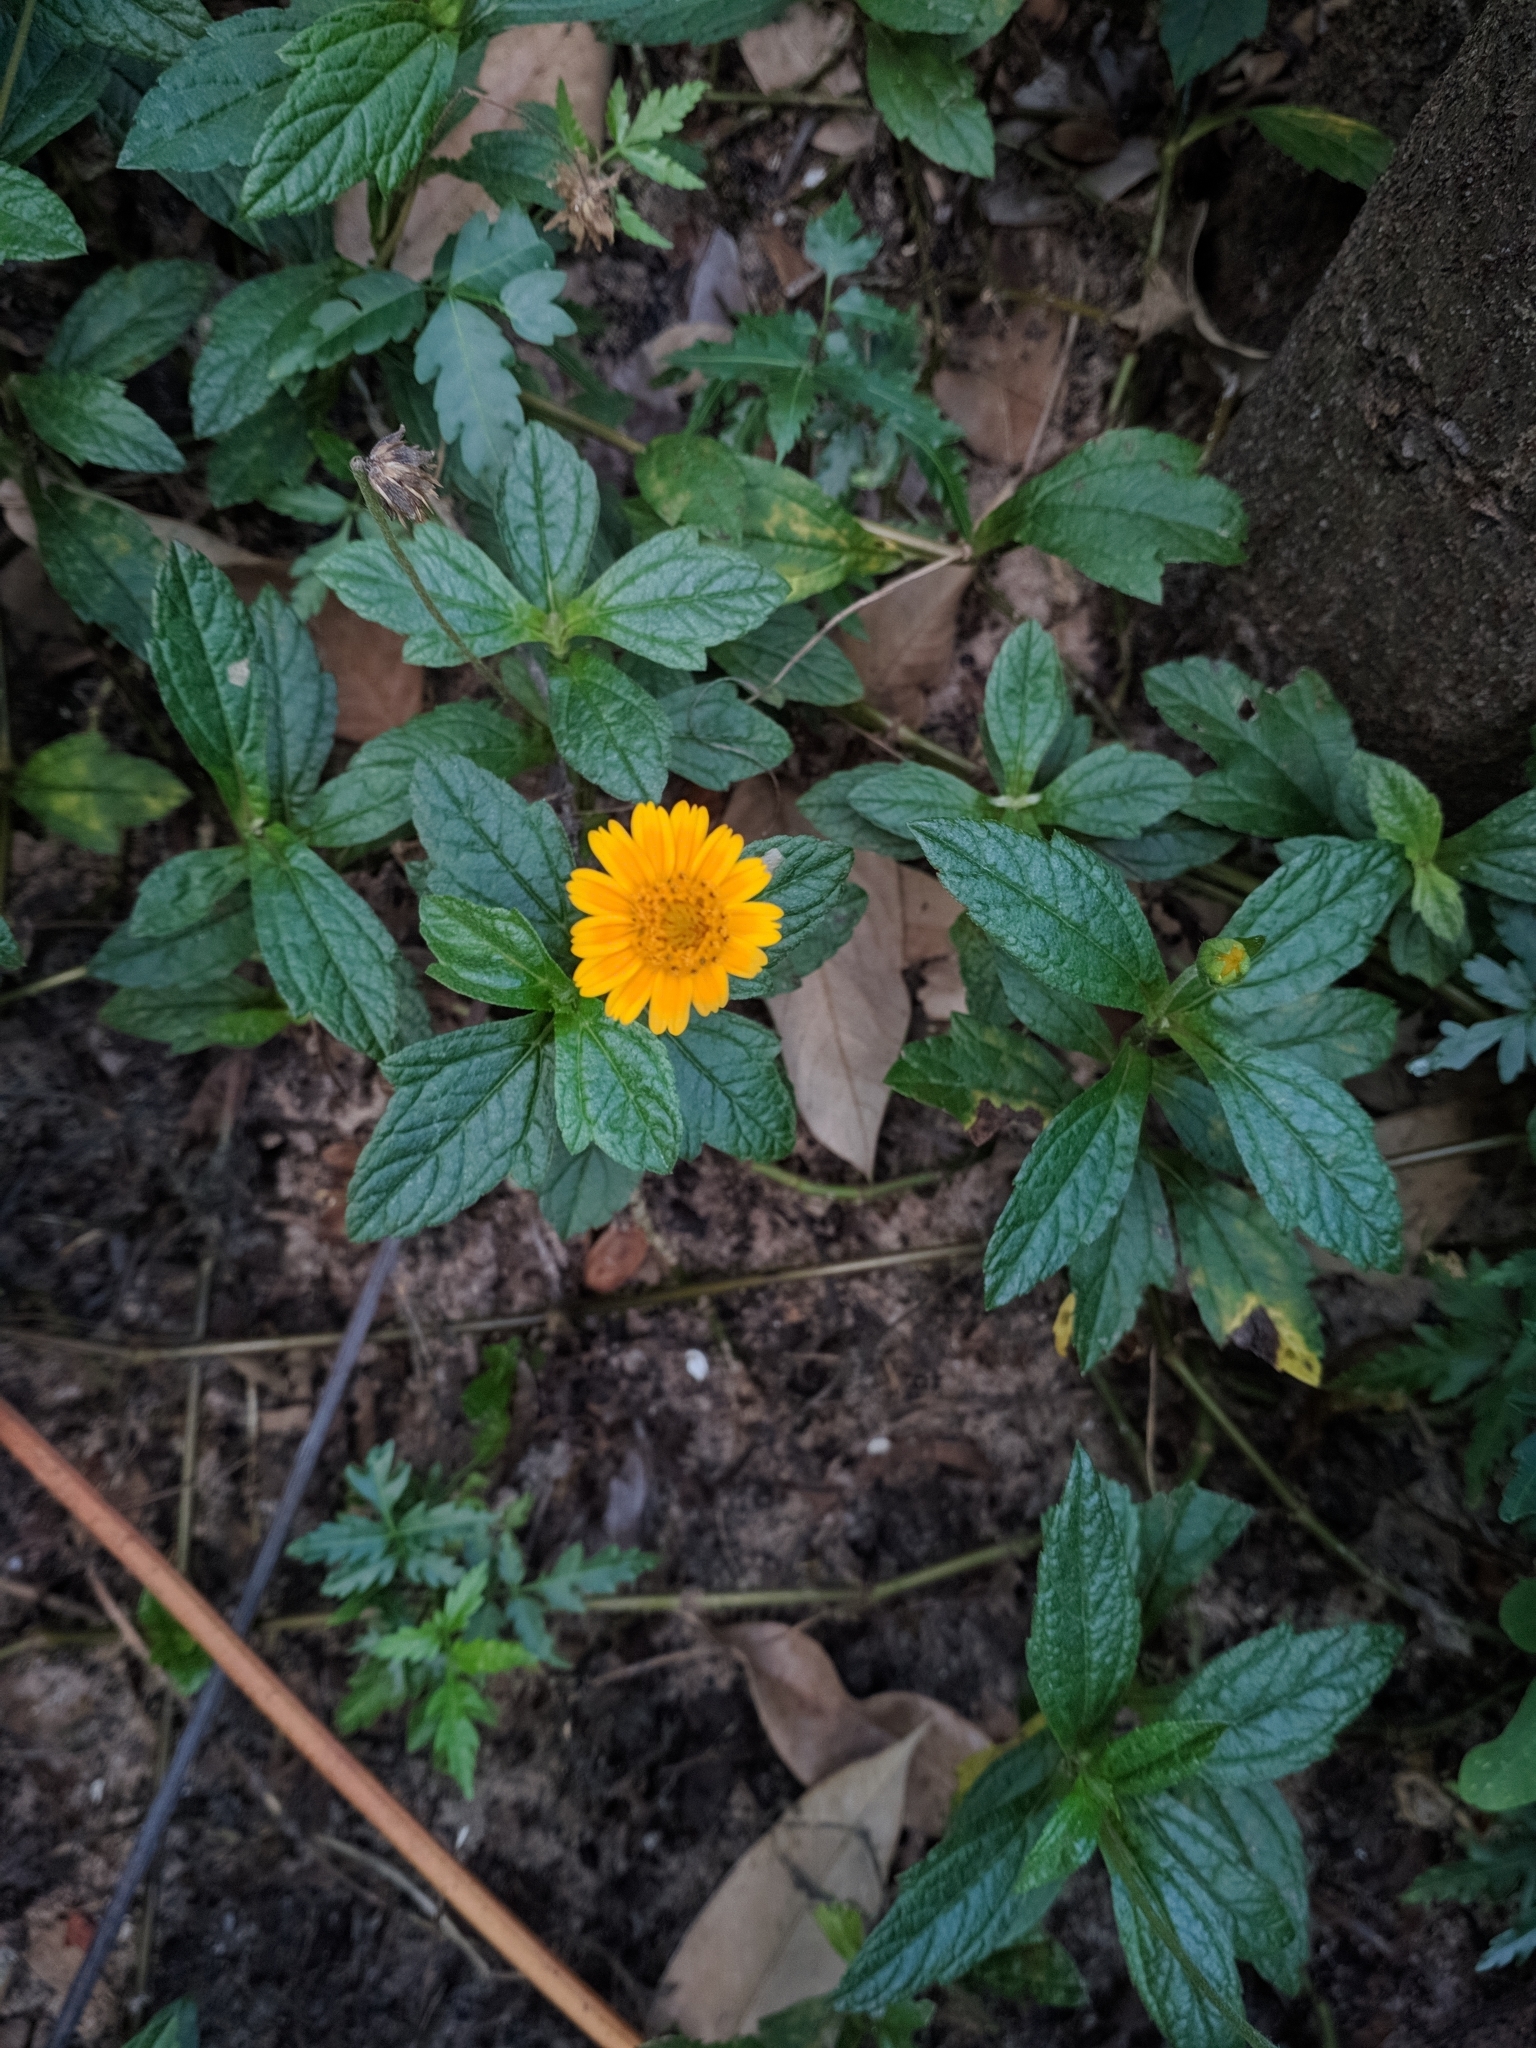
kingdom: Plantae
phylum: Tracheophyta
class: Magnoliopsida
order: Asterales
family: Asteraceae
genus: Sphagneticola
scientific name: Sphagneticola trilobata
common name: Bay biscayne creeping-oxeye
